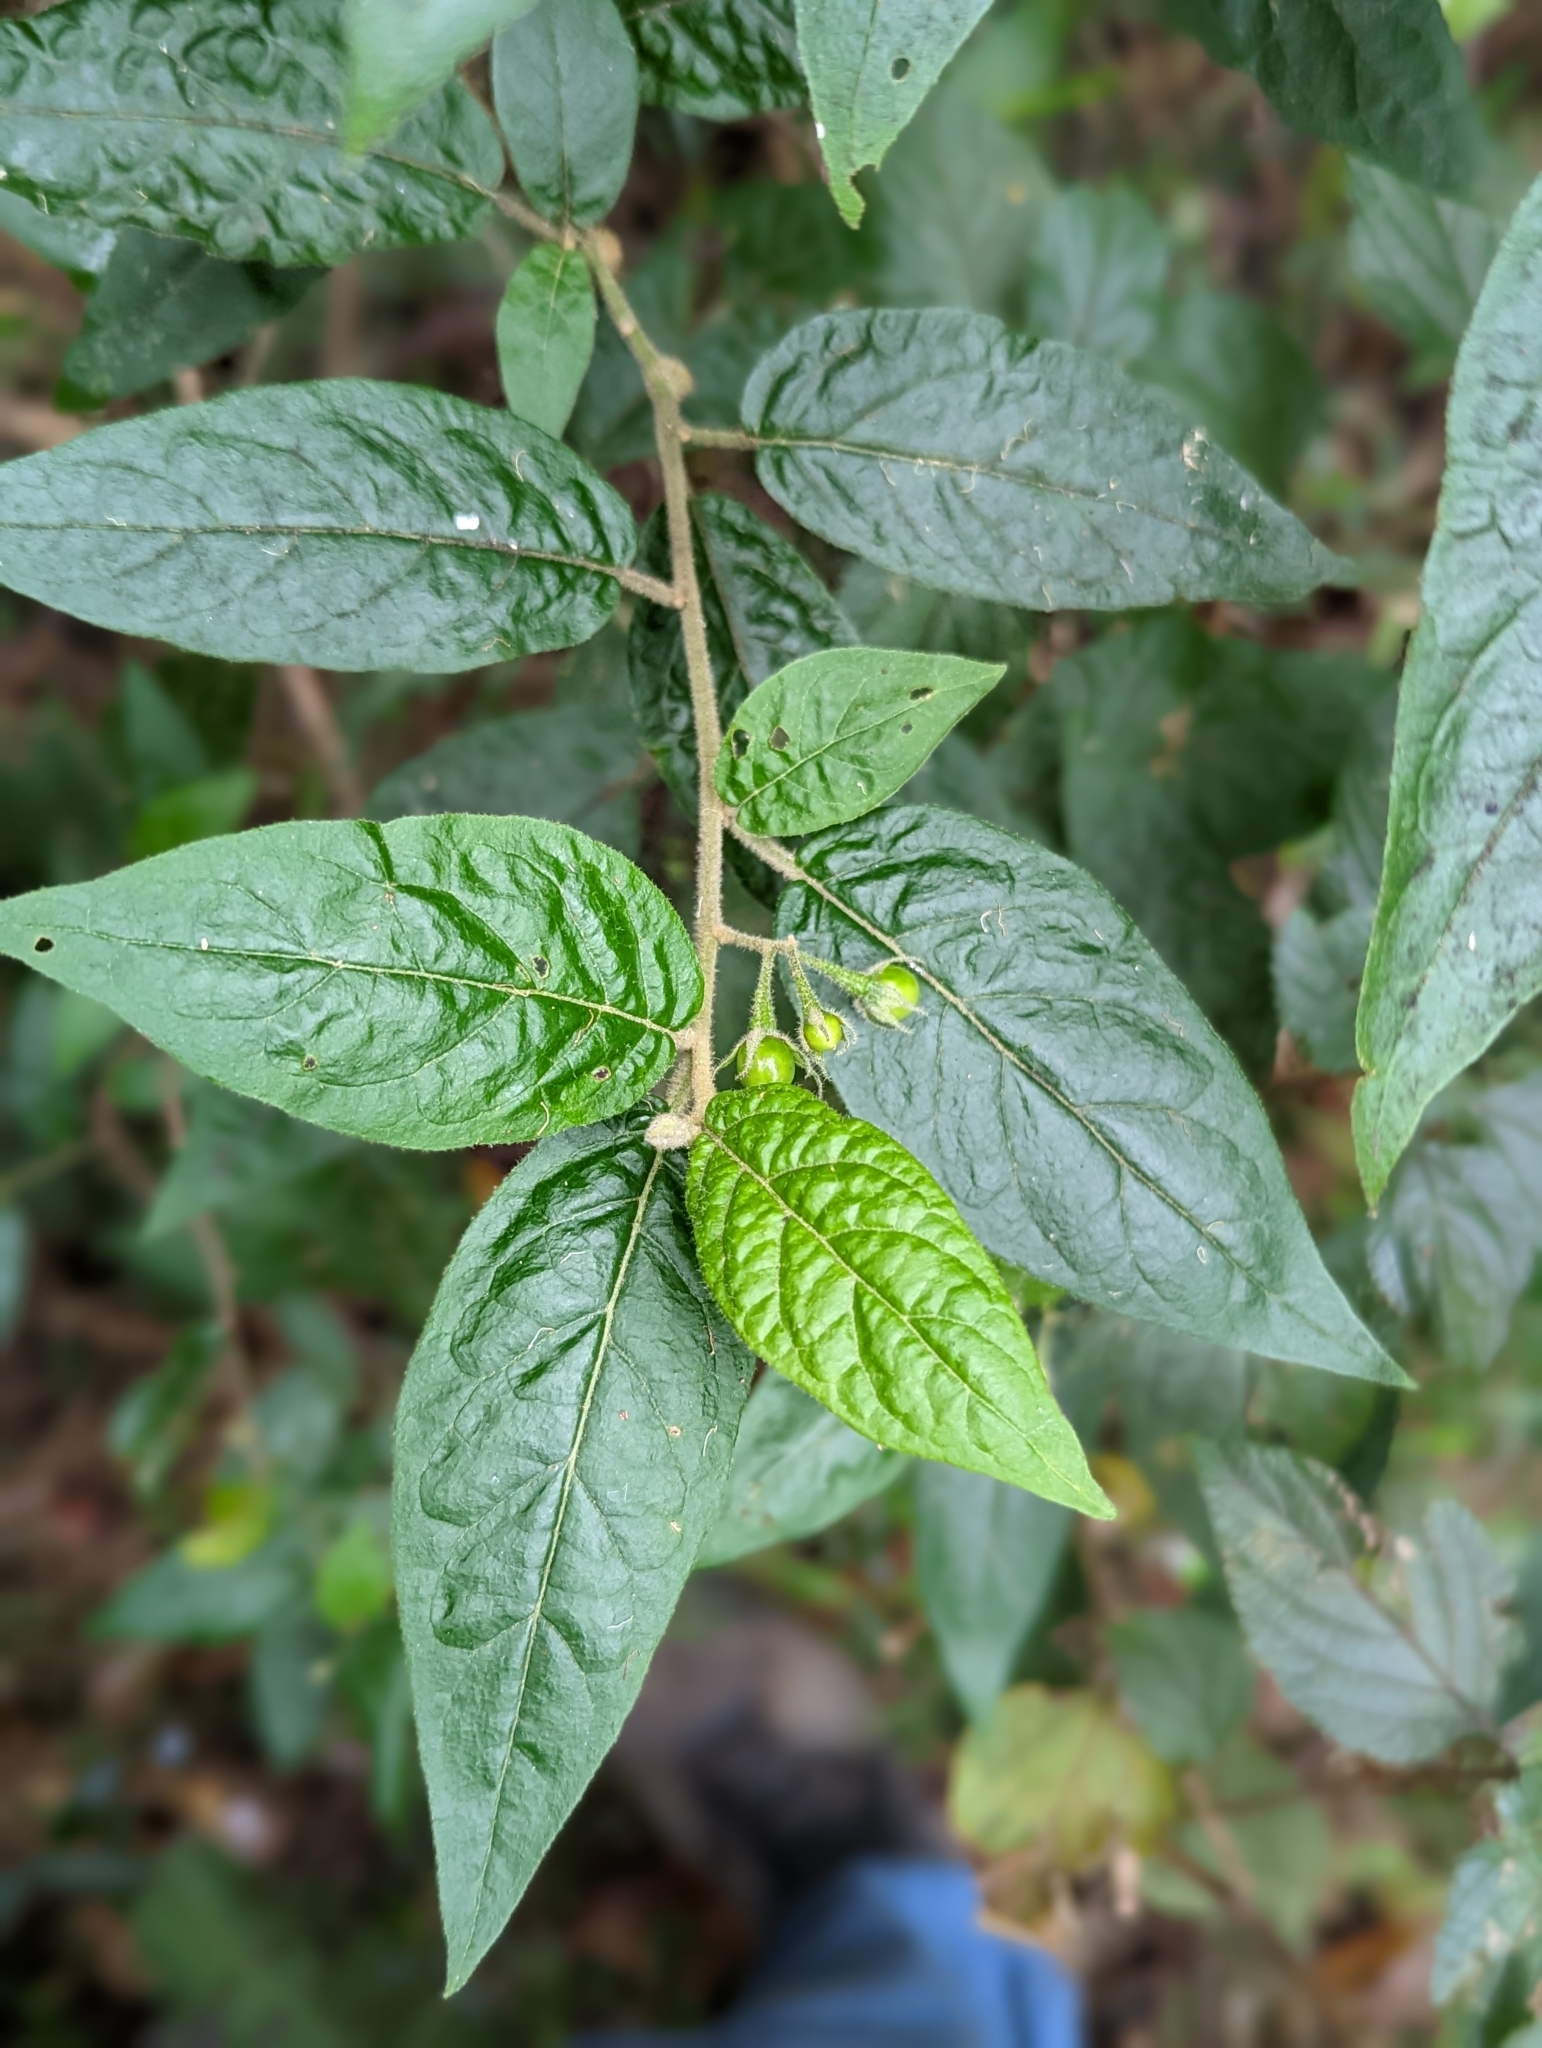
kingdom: Plantae
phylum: Tracheophyta
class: Magnoliopsida
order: Solanales
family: Solanaceae
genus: Solanum
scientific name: Solanum stelligerum
